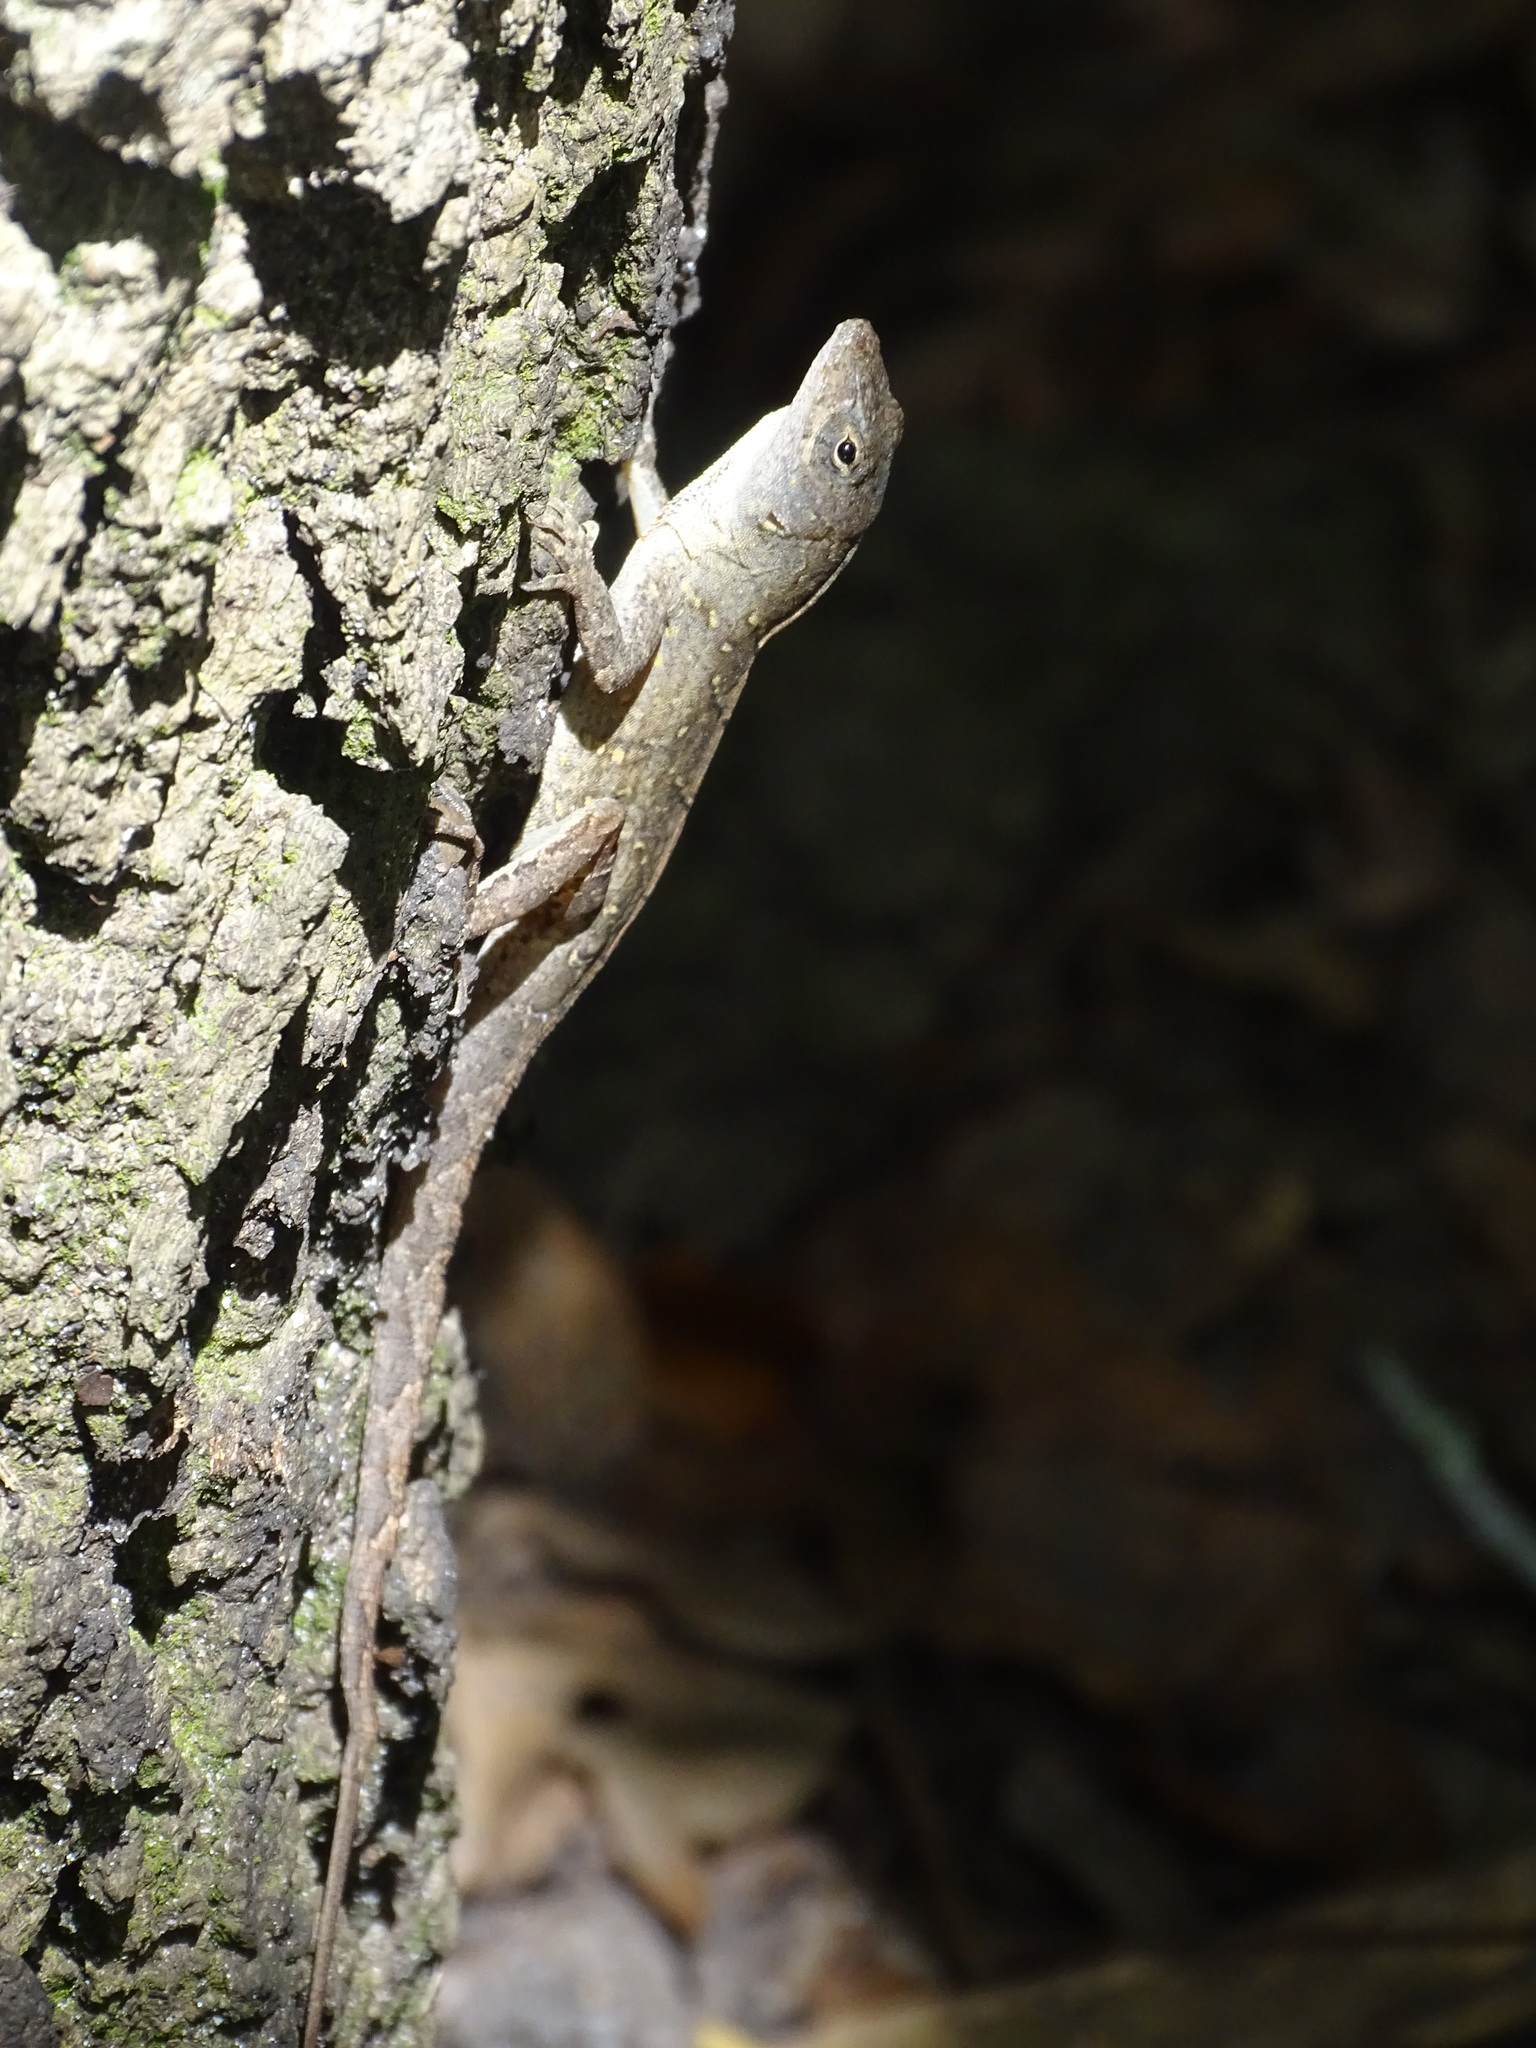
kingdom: Animalia
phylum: Chordata
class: Squamata
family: Dactyloidae
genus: Anolis
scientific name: Anolis sagrei
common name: Brown anole
